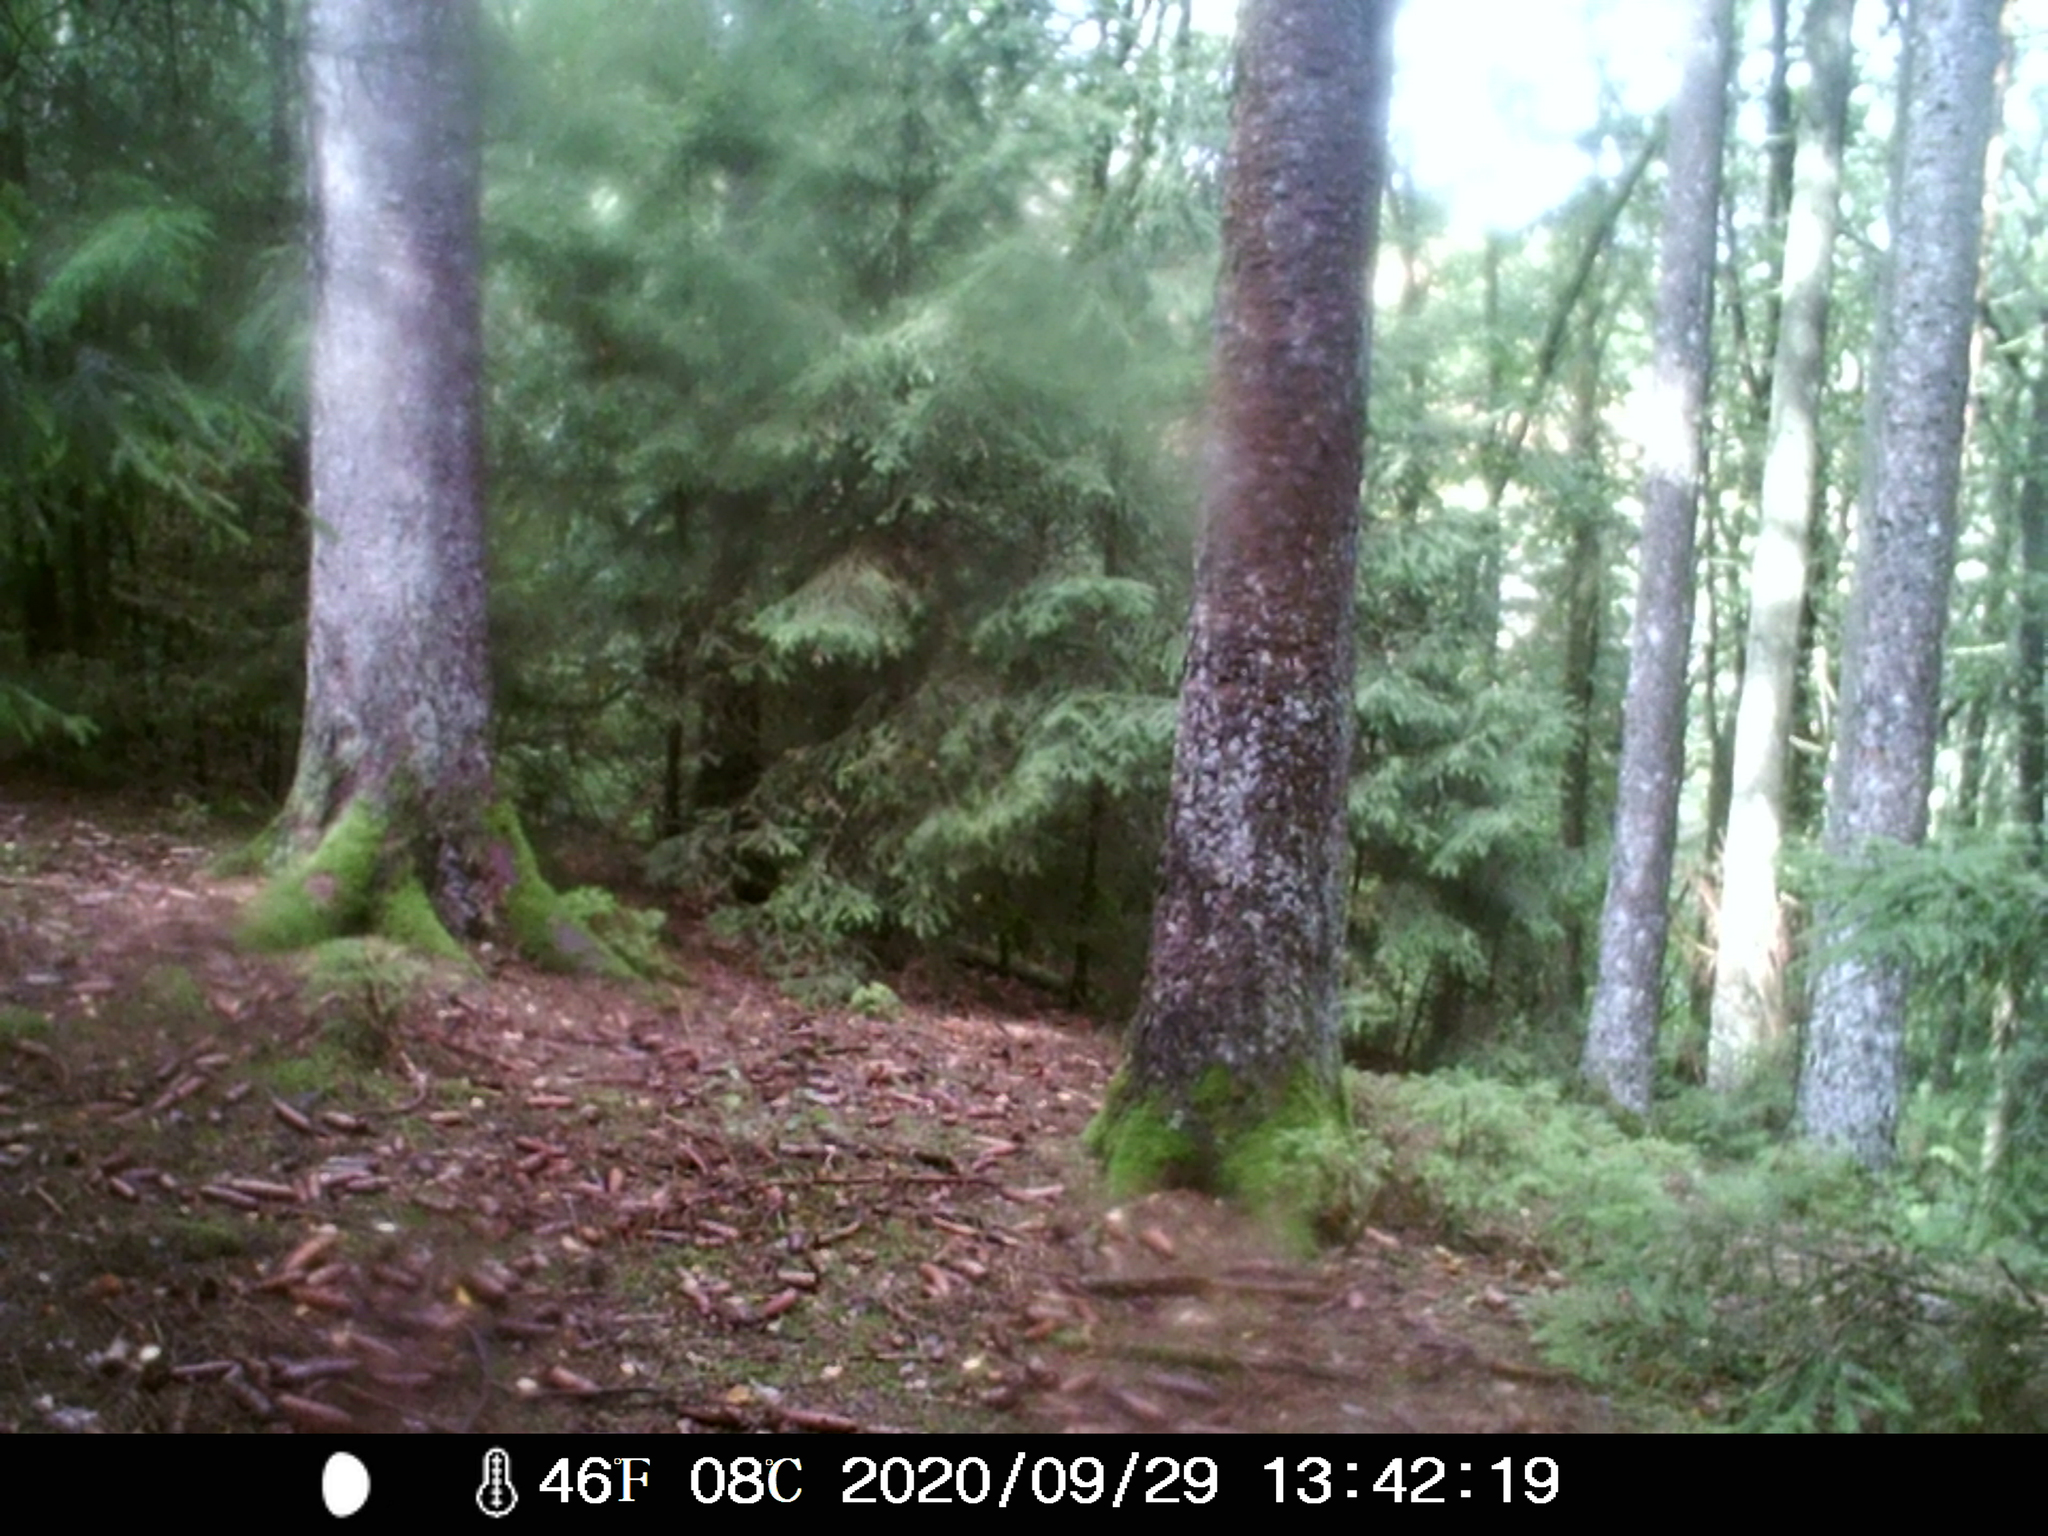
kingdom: Animalia
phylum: Chordata
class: Mammalia
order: Rodentia
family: Sciuridae
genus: Sciurus
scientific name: Sciurus vulgaris
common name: Eurasian red squirrel
